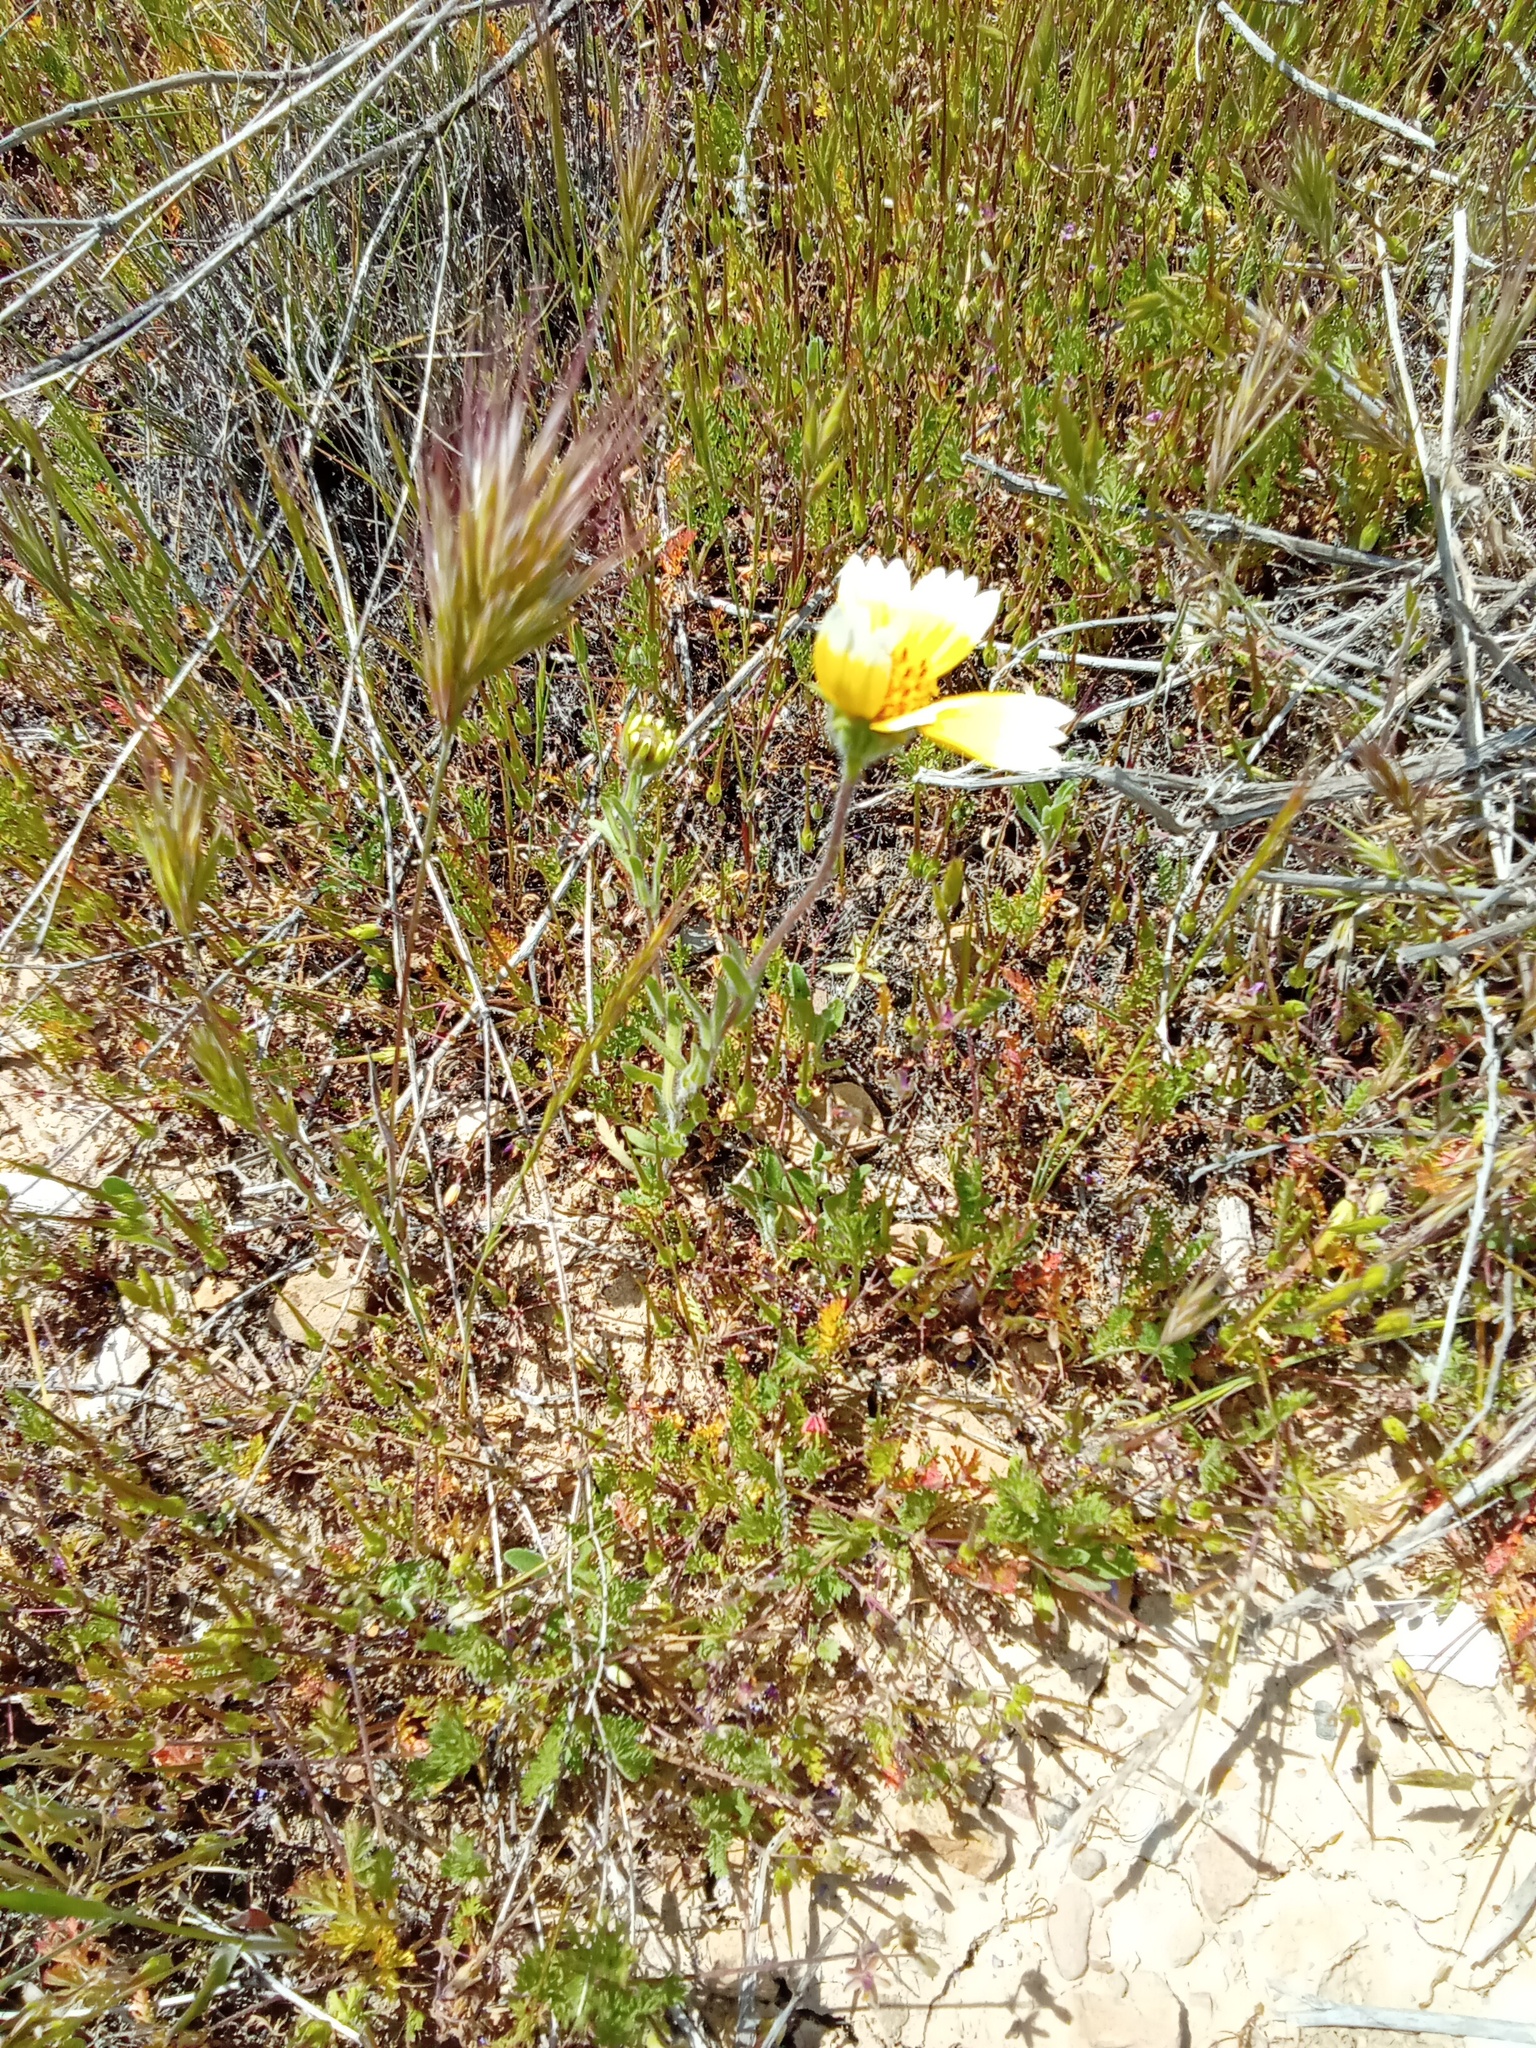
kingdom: Plantae
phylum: Tracheophyta
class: Magnoliopsida
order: Asterales
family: Asteraceae
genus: Layia
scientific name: Layia platyglossa
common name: Tidy-tips
